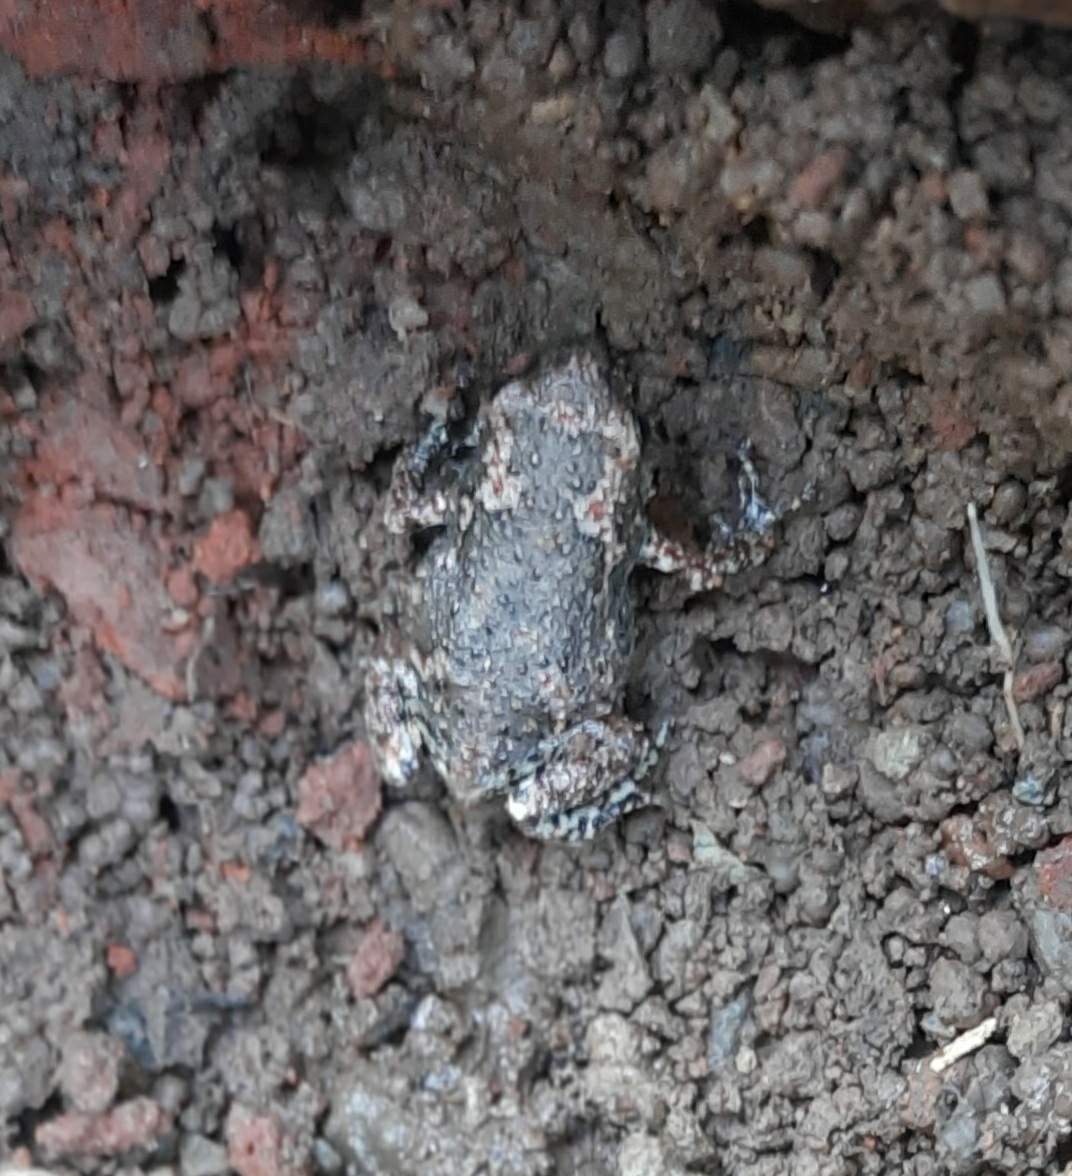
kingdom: Animalia
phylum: Chordata
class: Amphibia
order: Anura
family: Microhylidae
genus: Uperodon
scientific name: Uperodon taprobanicus
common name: Ceylon kaloula
